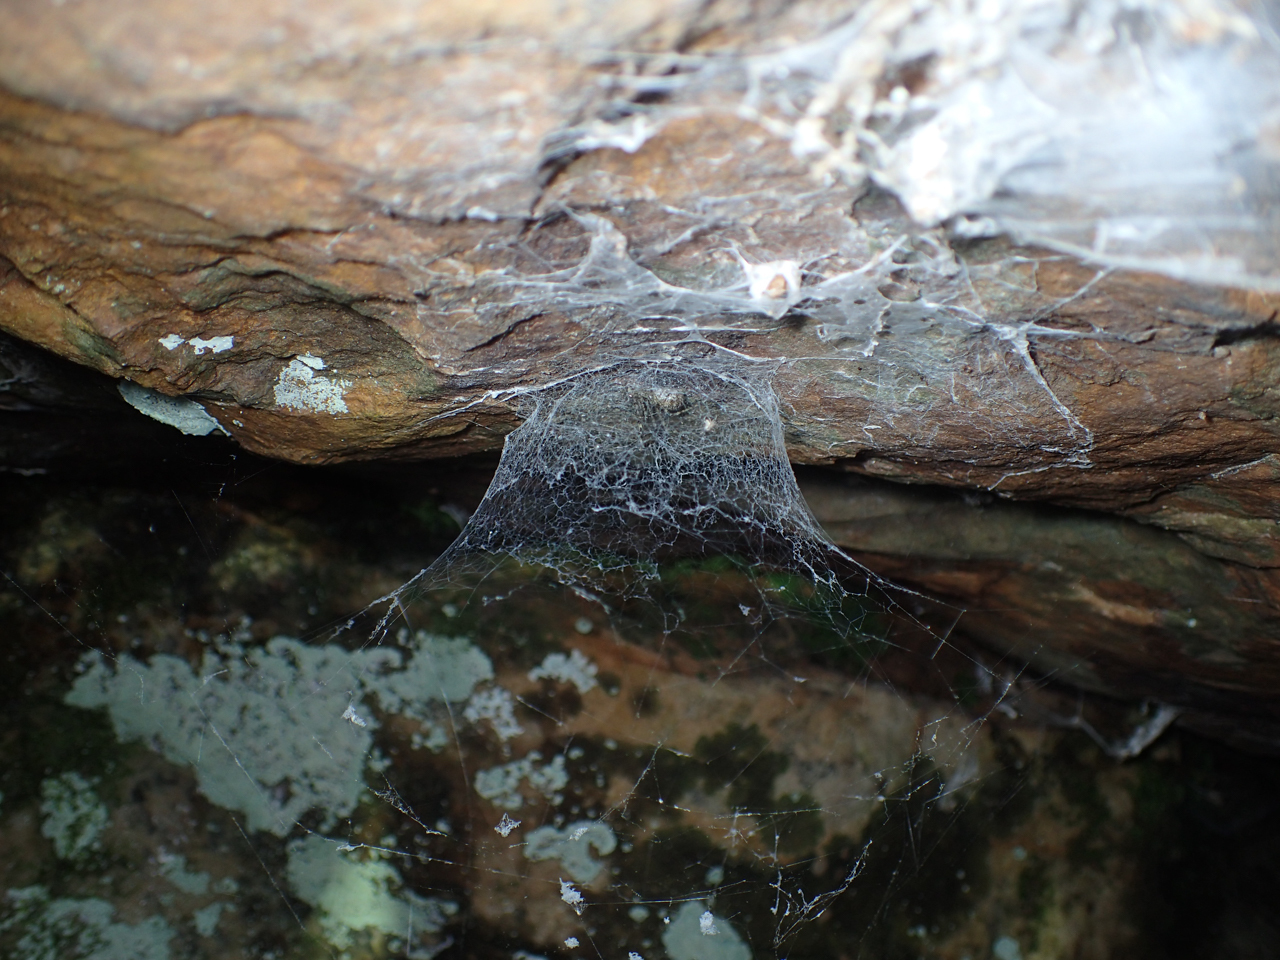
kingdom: Animalia
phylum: Arthropoda
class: Arachnida
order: Araneae
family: Hypochilidae
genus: Hypochilus
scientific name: Hypochilus thorelli
